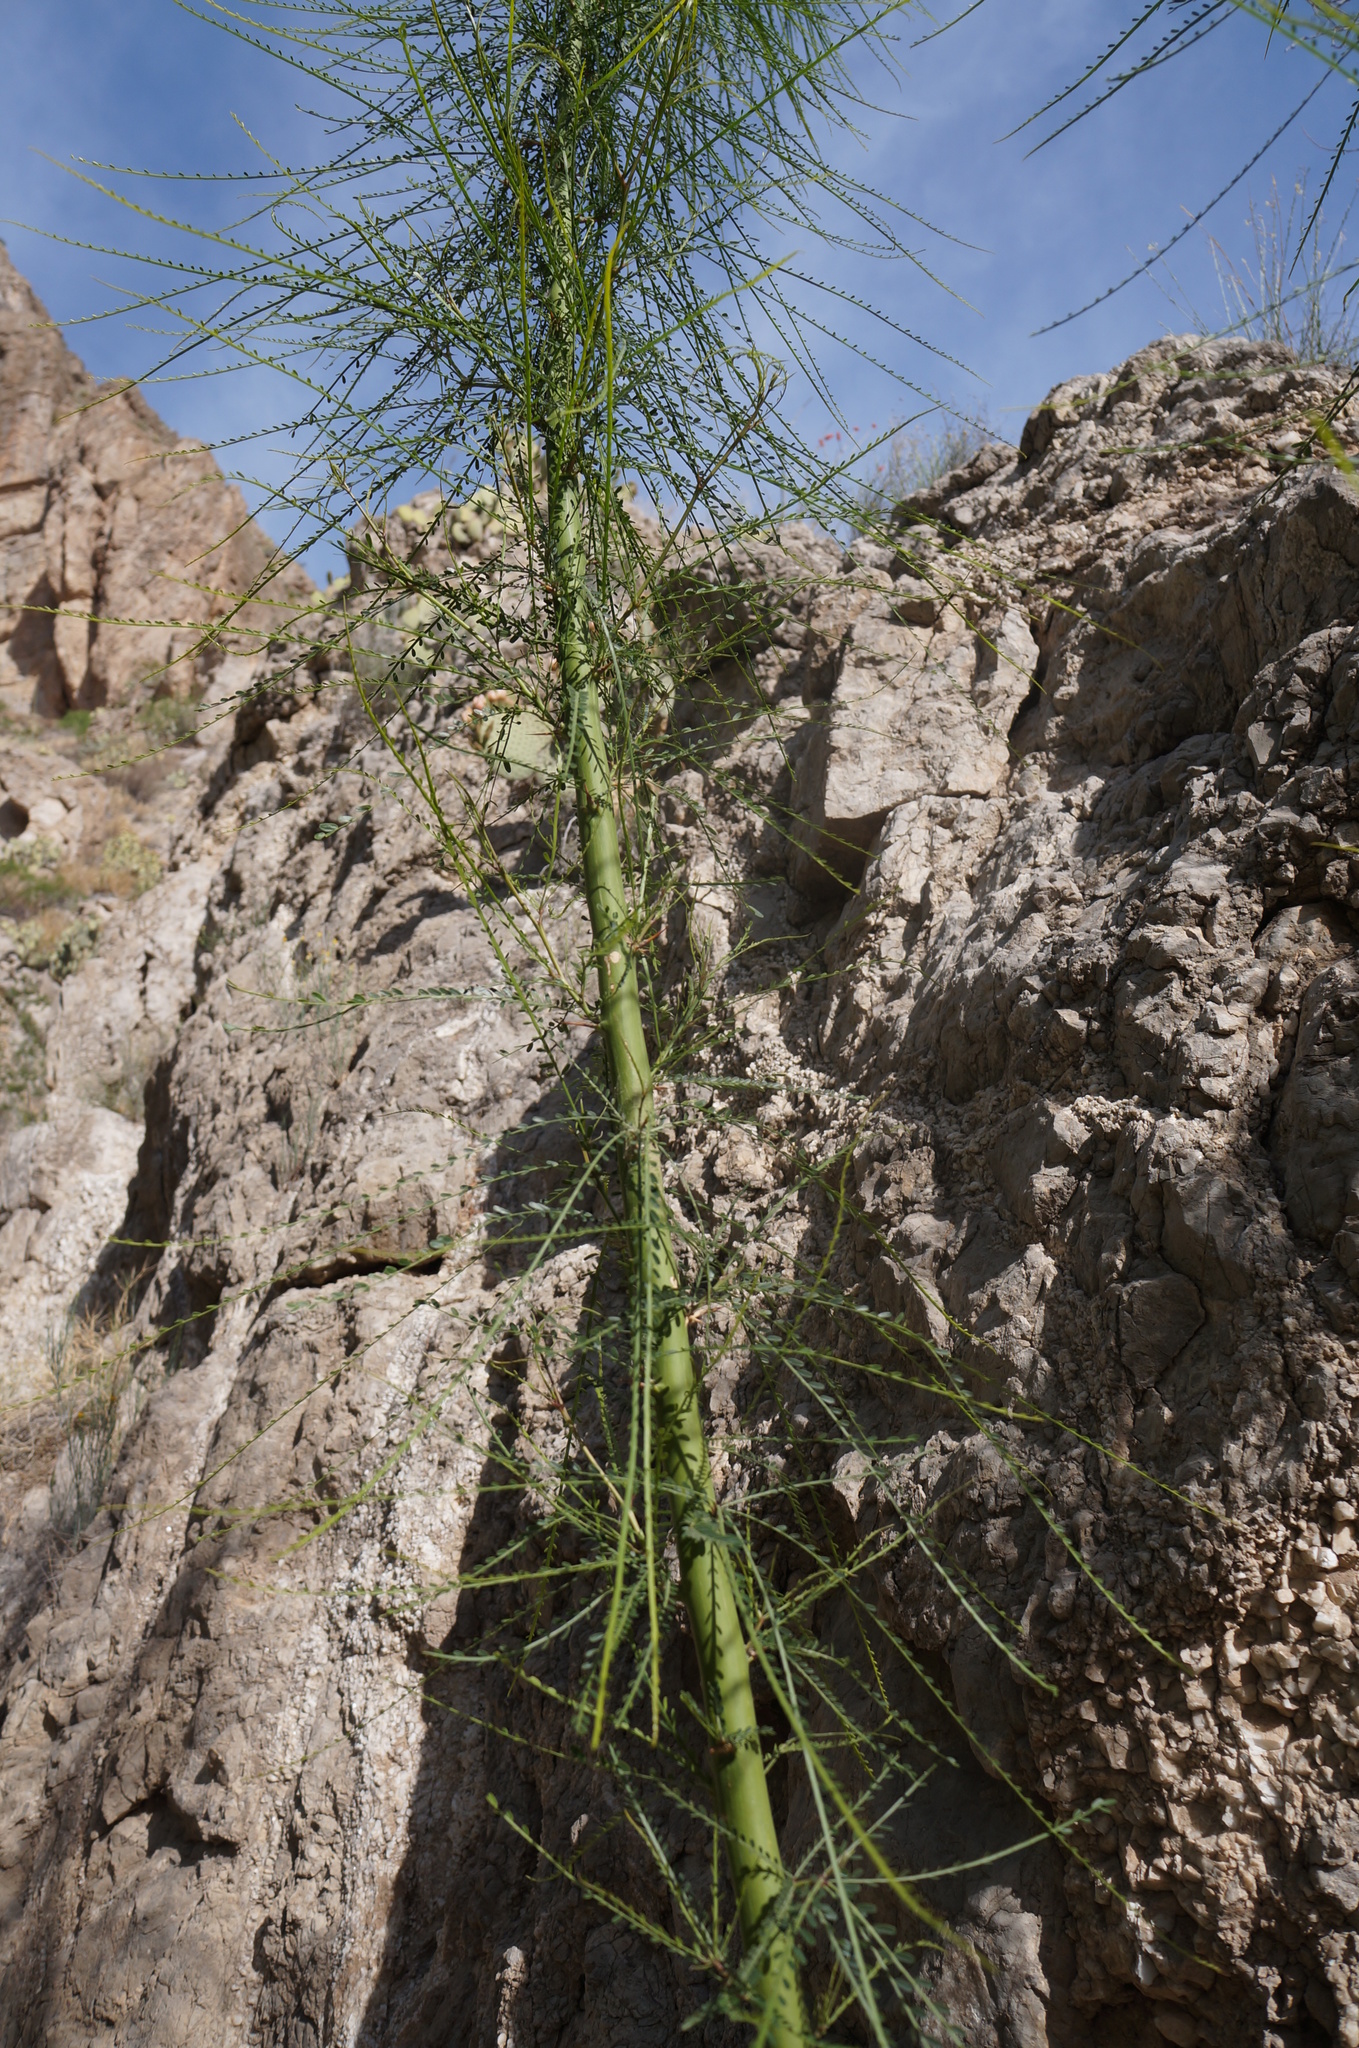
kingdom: Plantae
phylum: Tracheophyta
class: Magnoliopsida
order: Fabales
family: Fabaceae
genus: Parkinsonia
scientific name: Parkinsonia aculeata
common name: Jerusalem thorn
